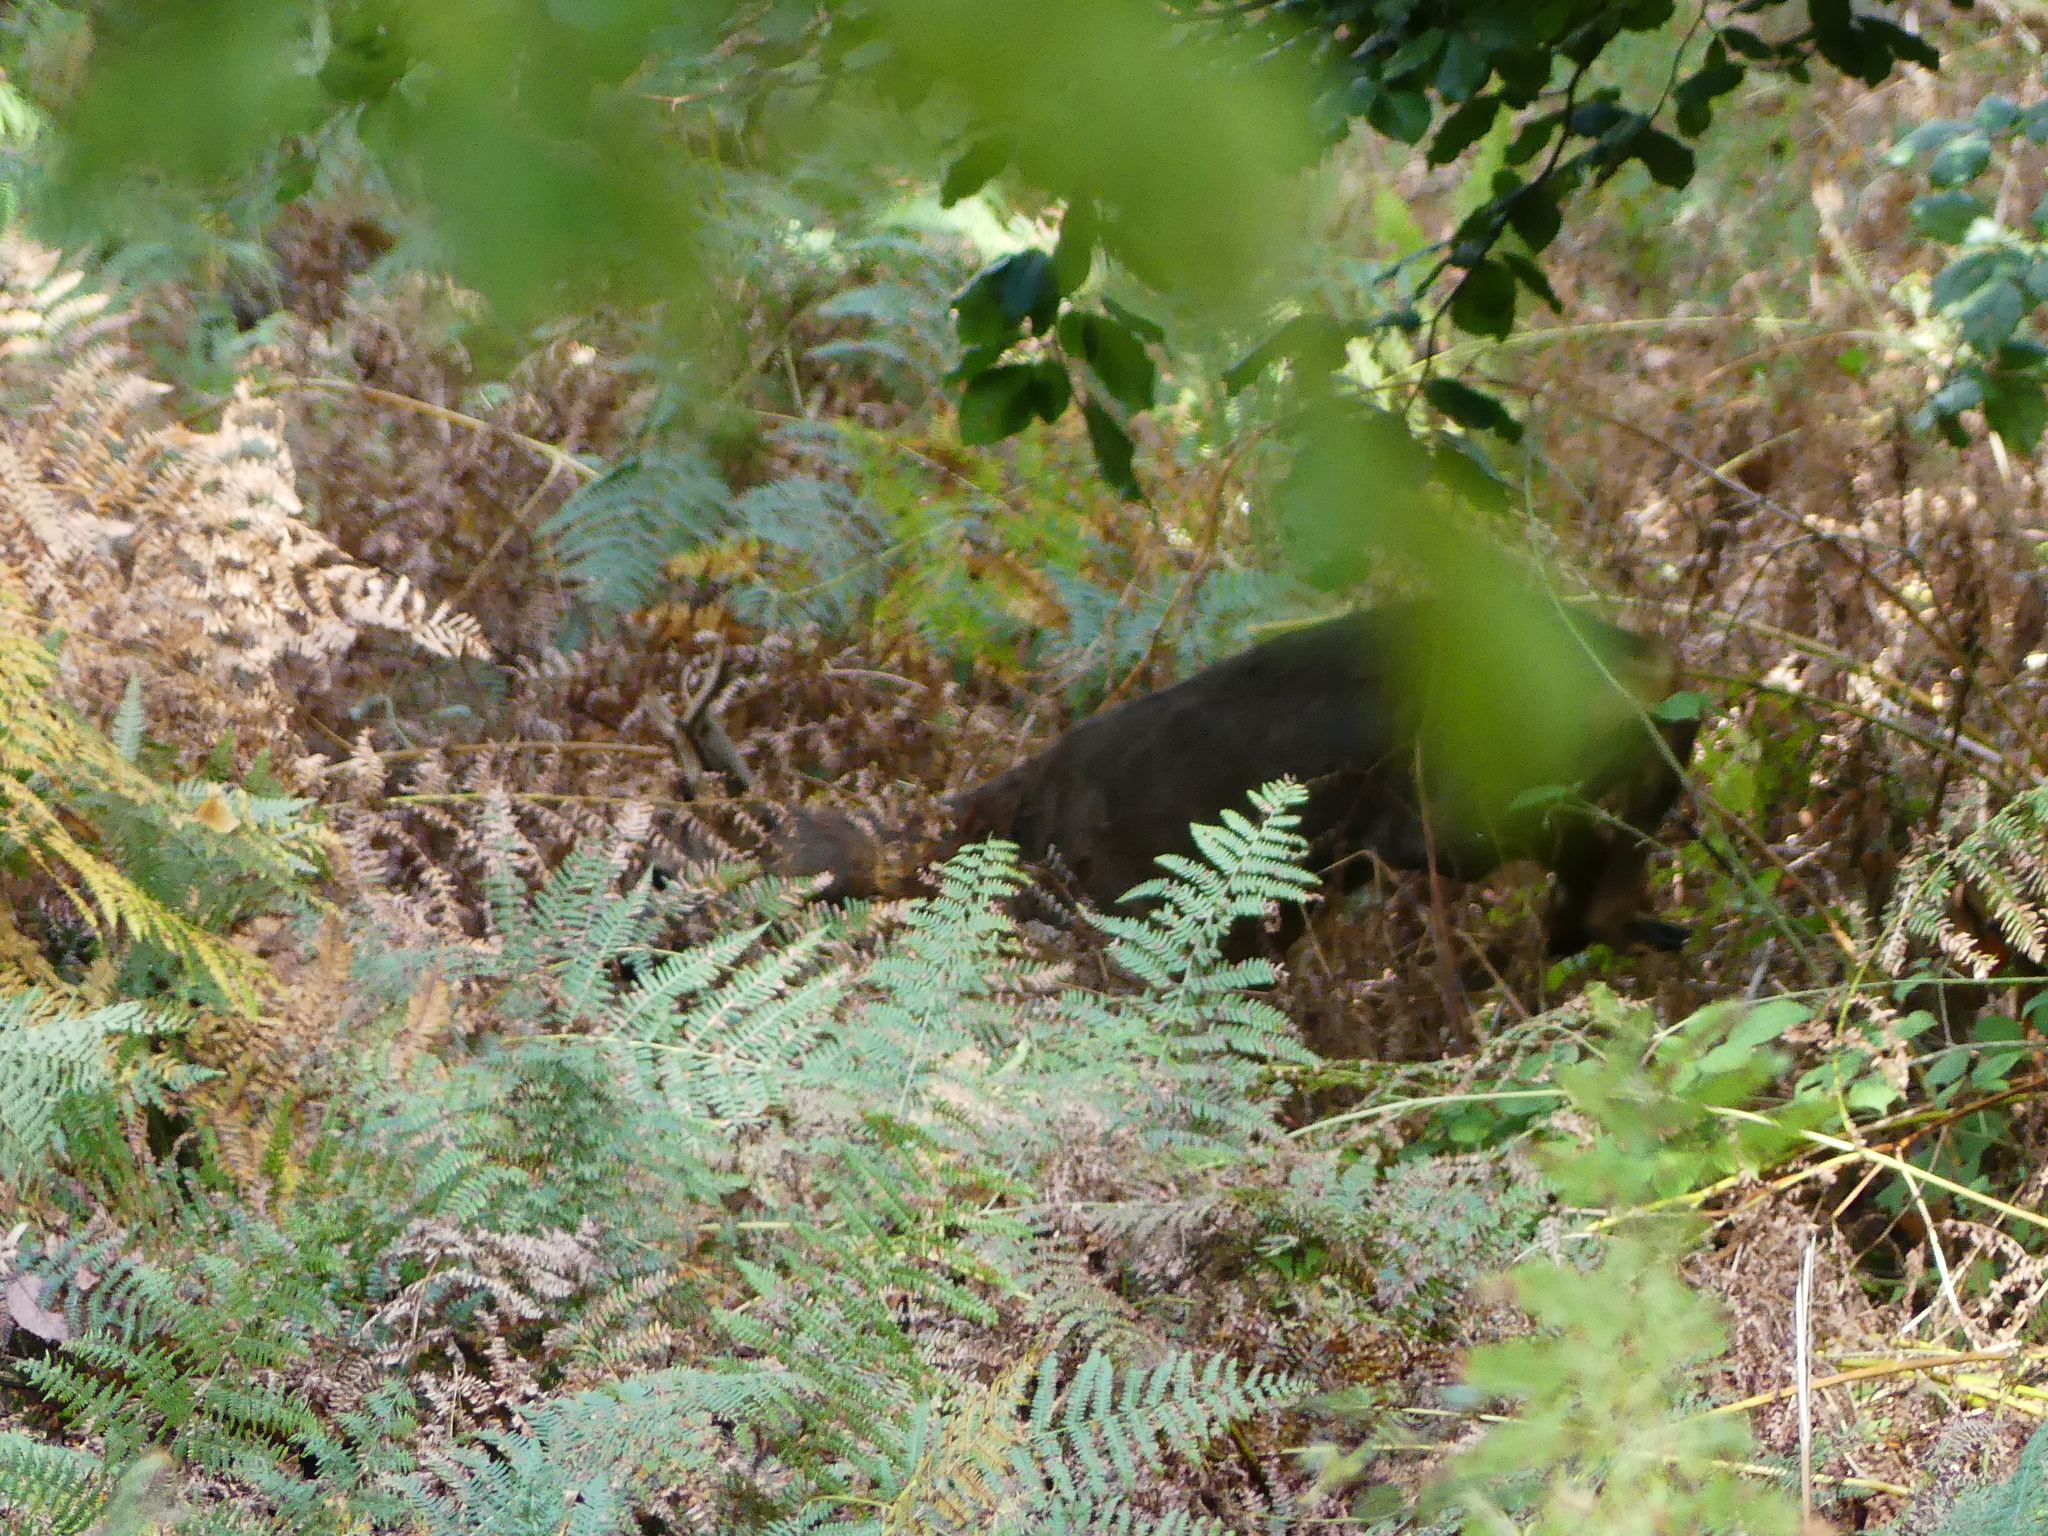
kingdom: Animalia
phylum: Chordata
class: Mammalia
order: Artiodactyla
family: Cervidae
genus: Capreolus
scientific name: Capreolus capreolus
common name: Western roe deer
